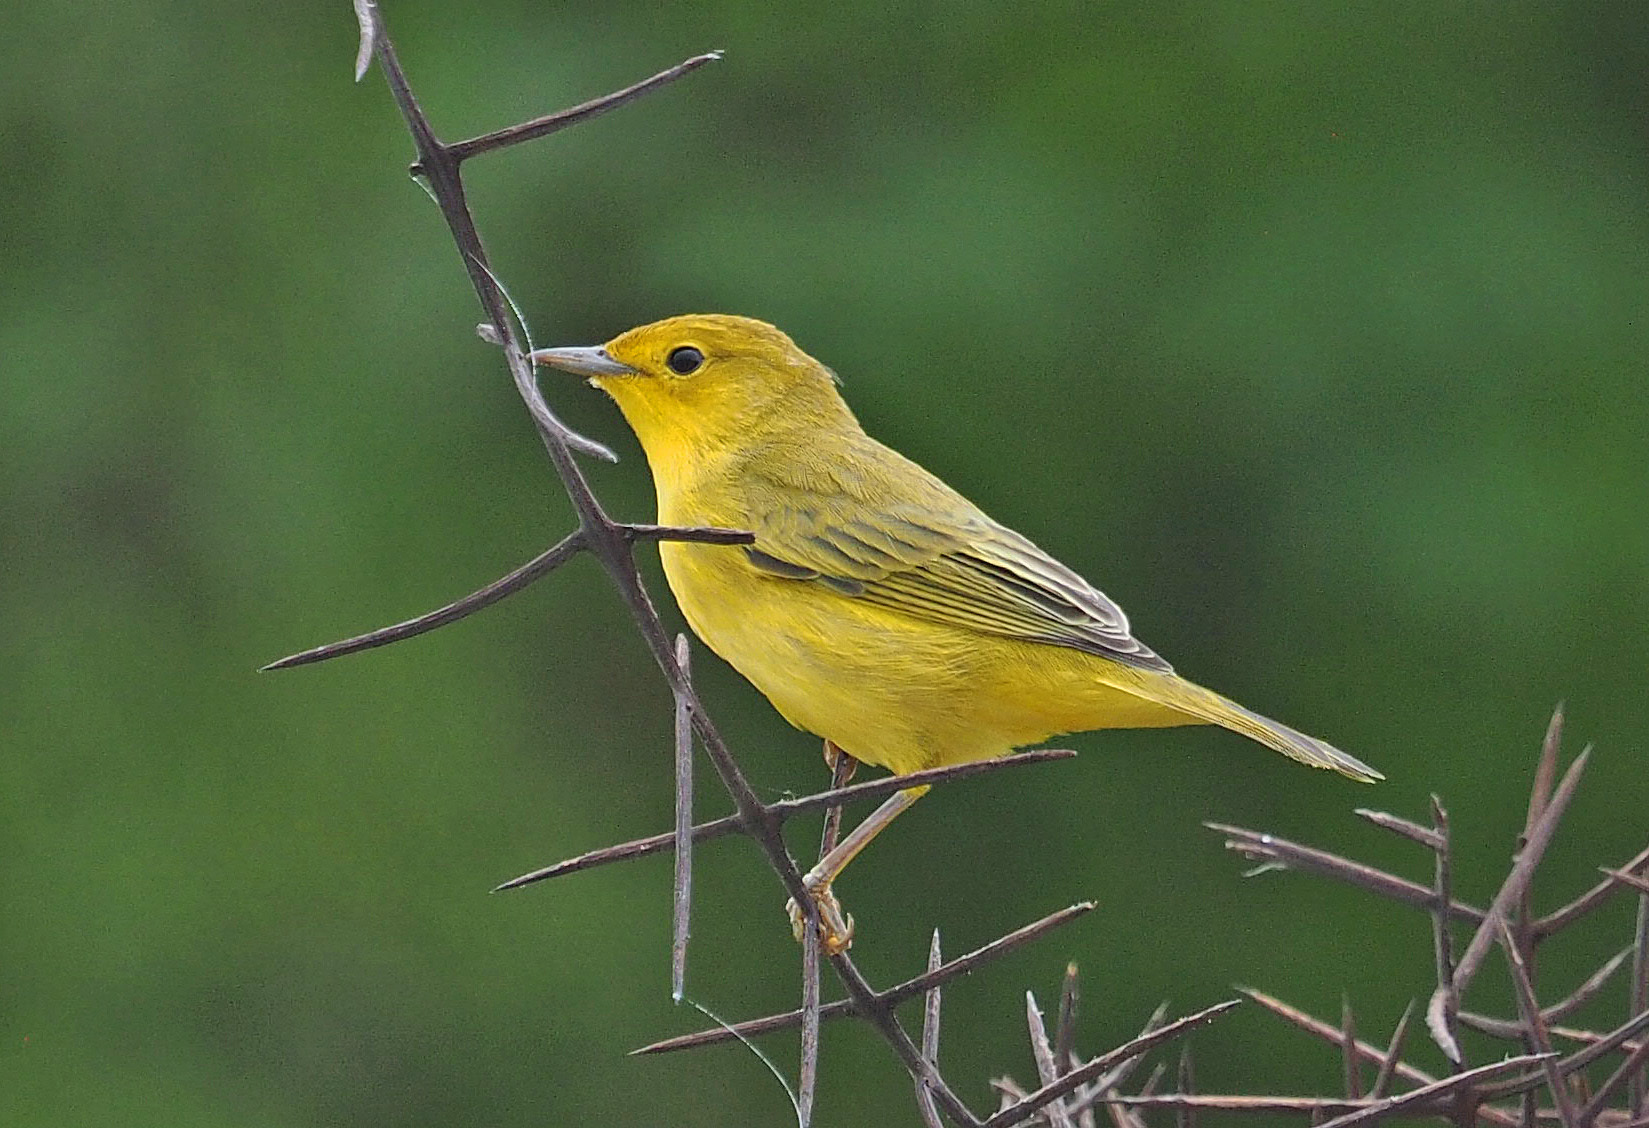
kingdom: Animalia
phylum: Chordata
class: Aves
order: Passeriformes
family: Parulidae
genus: Setophaga
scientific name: Setophaga petechia
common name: Yellow warbler
